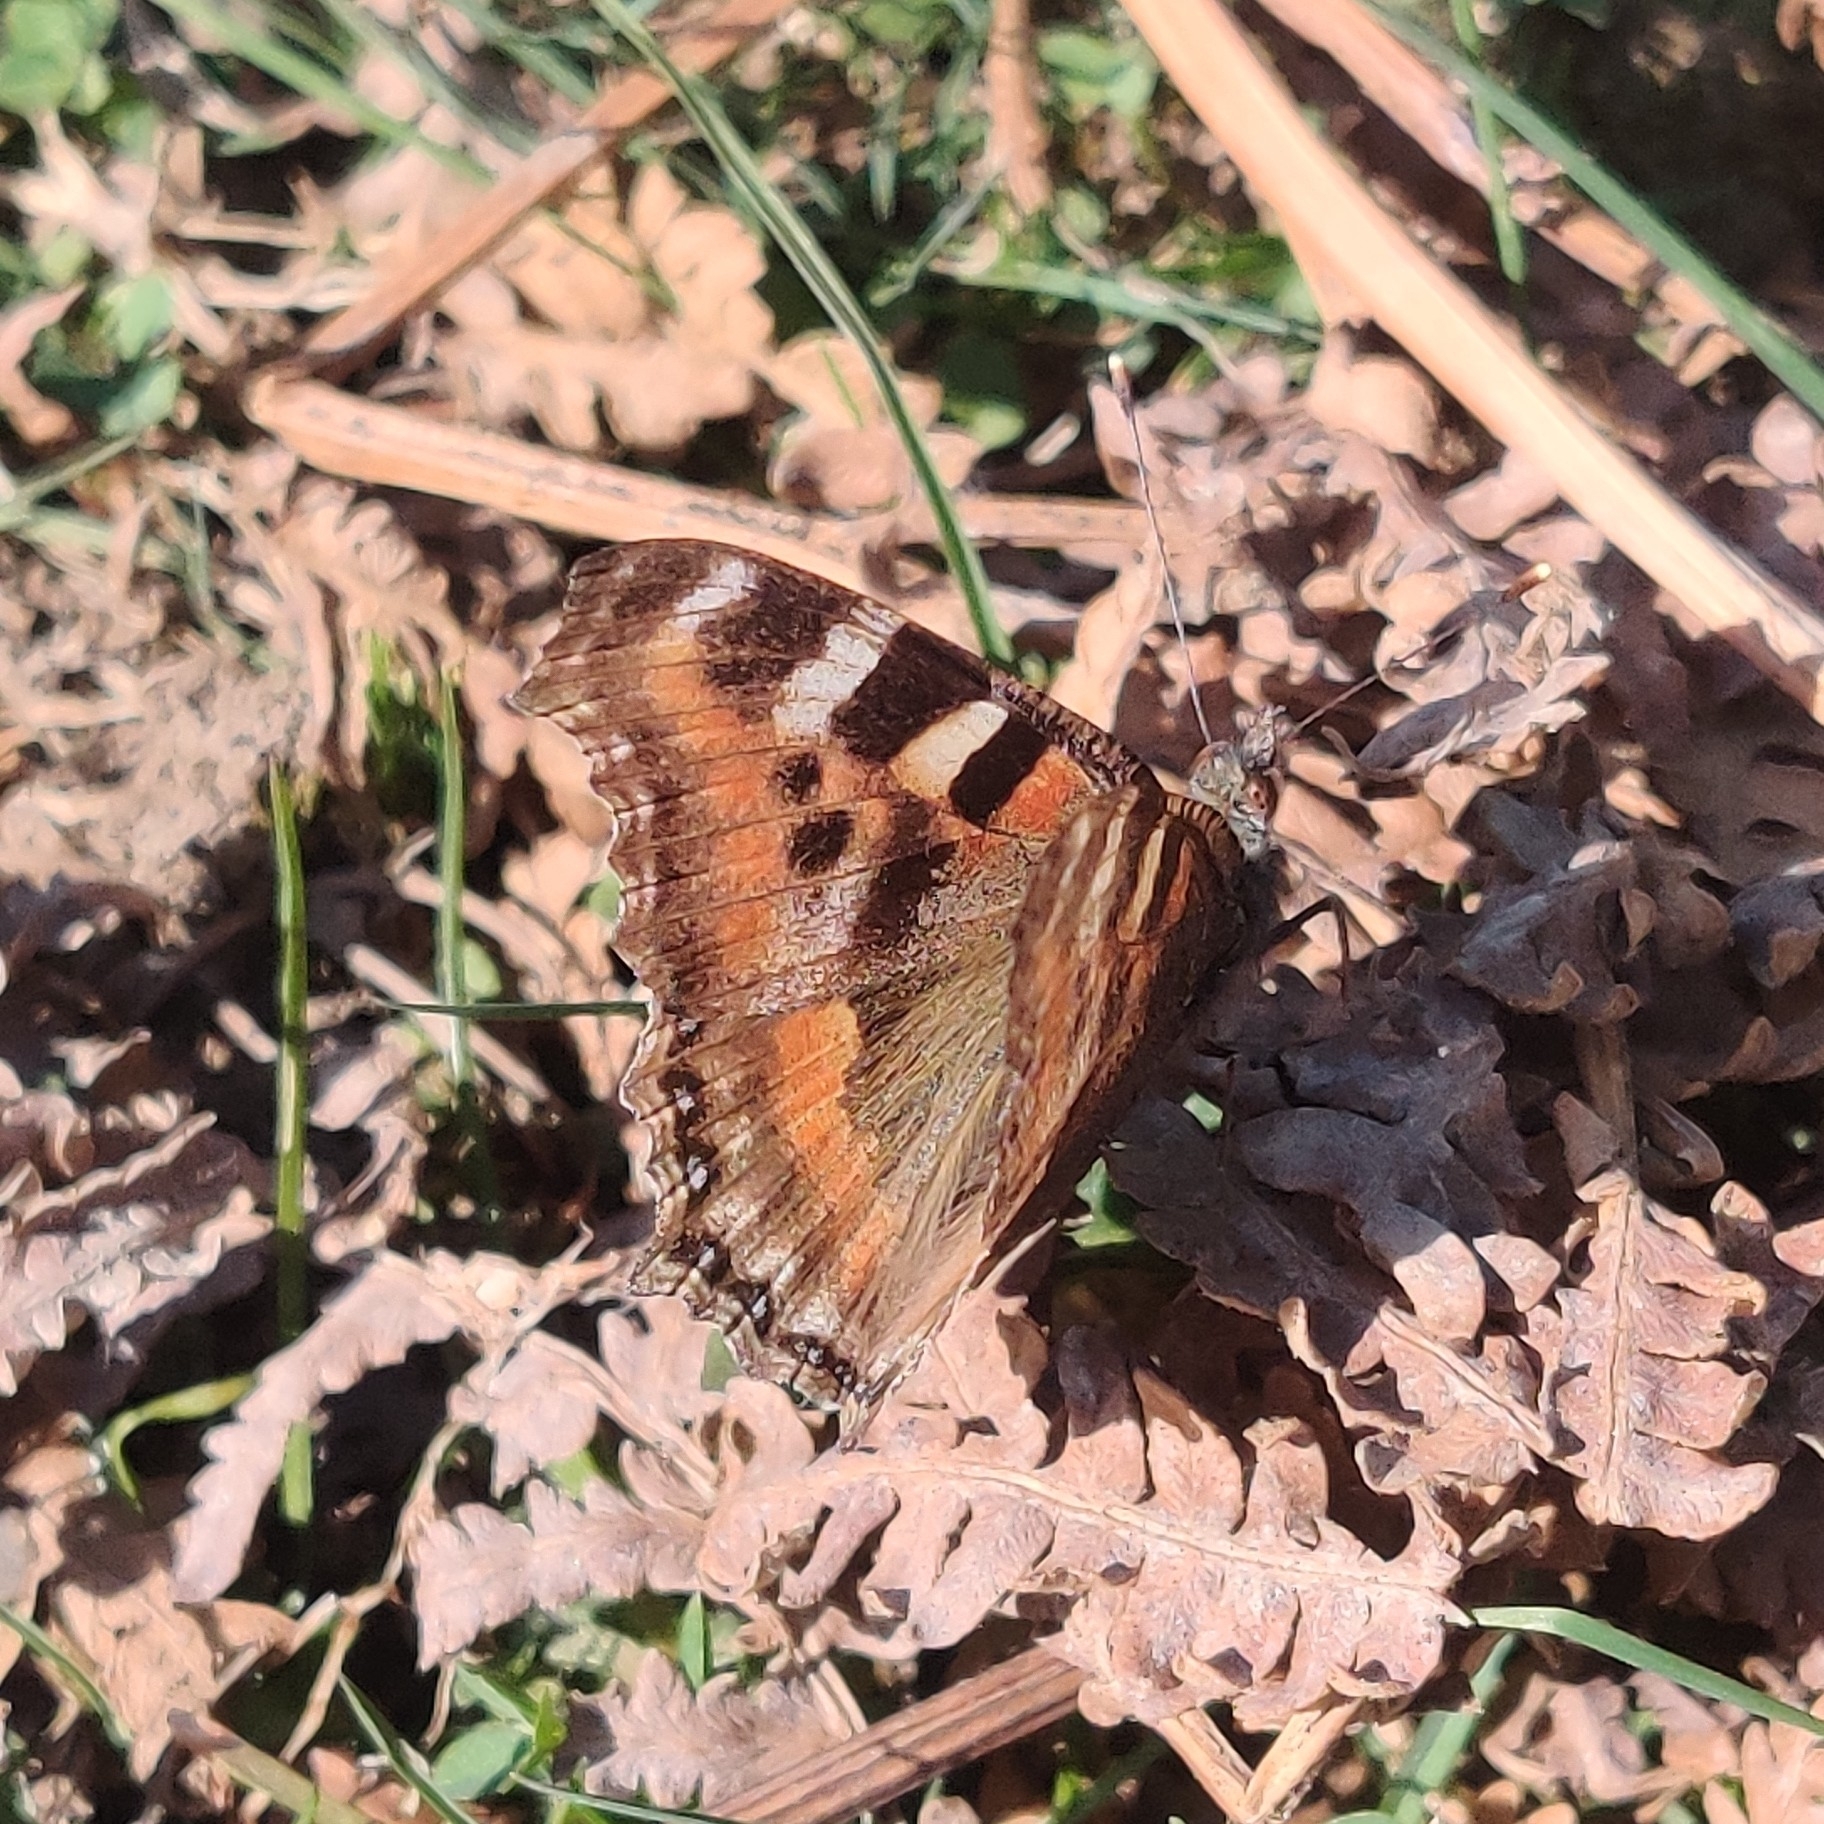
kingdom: Animalia
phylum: Arthropoda
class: Insecta
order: Lepidoptera
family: Nymphalidae
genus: Aglais
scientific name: Aglais caschmirensis
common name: Indian tortoiseshell
